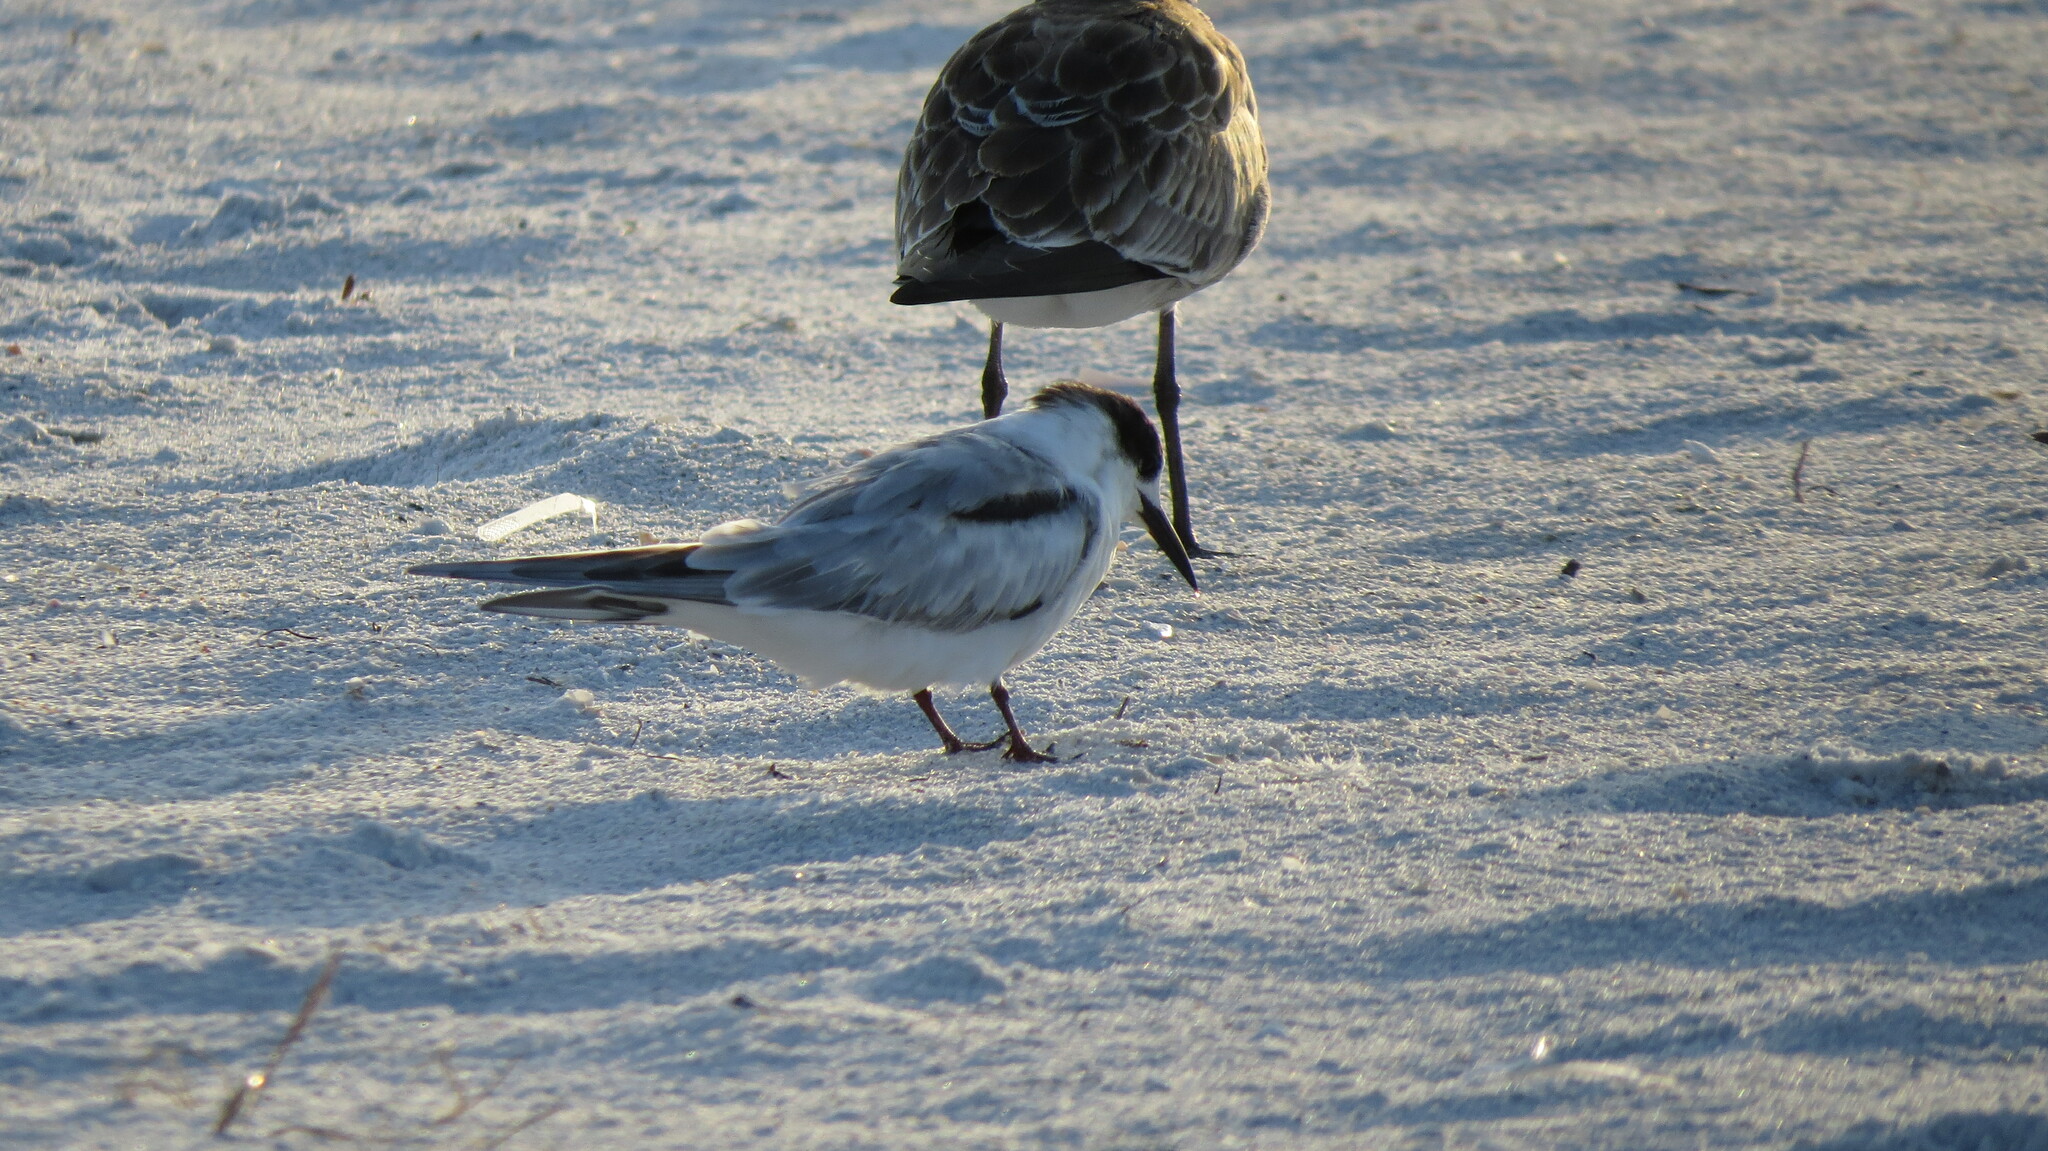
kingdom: Animalia
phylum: Chordata
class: Aves
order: Charadriiformes
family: Laridae
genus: Sterna
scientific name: Sterna hirundo
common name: Common tern
